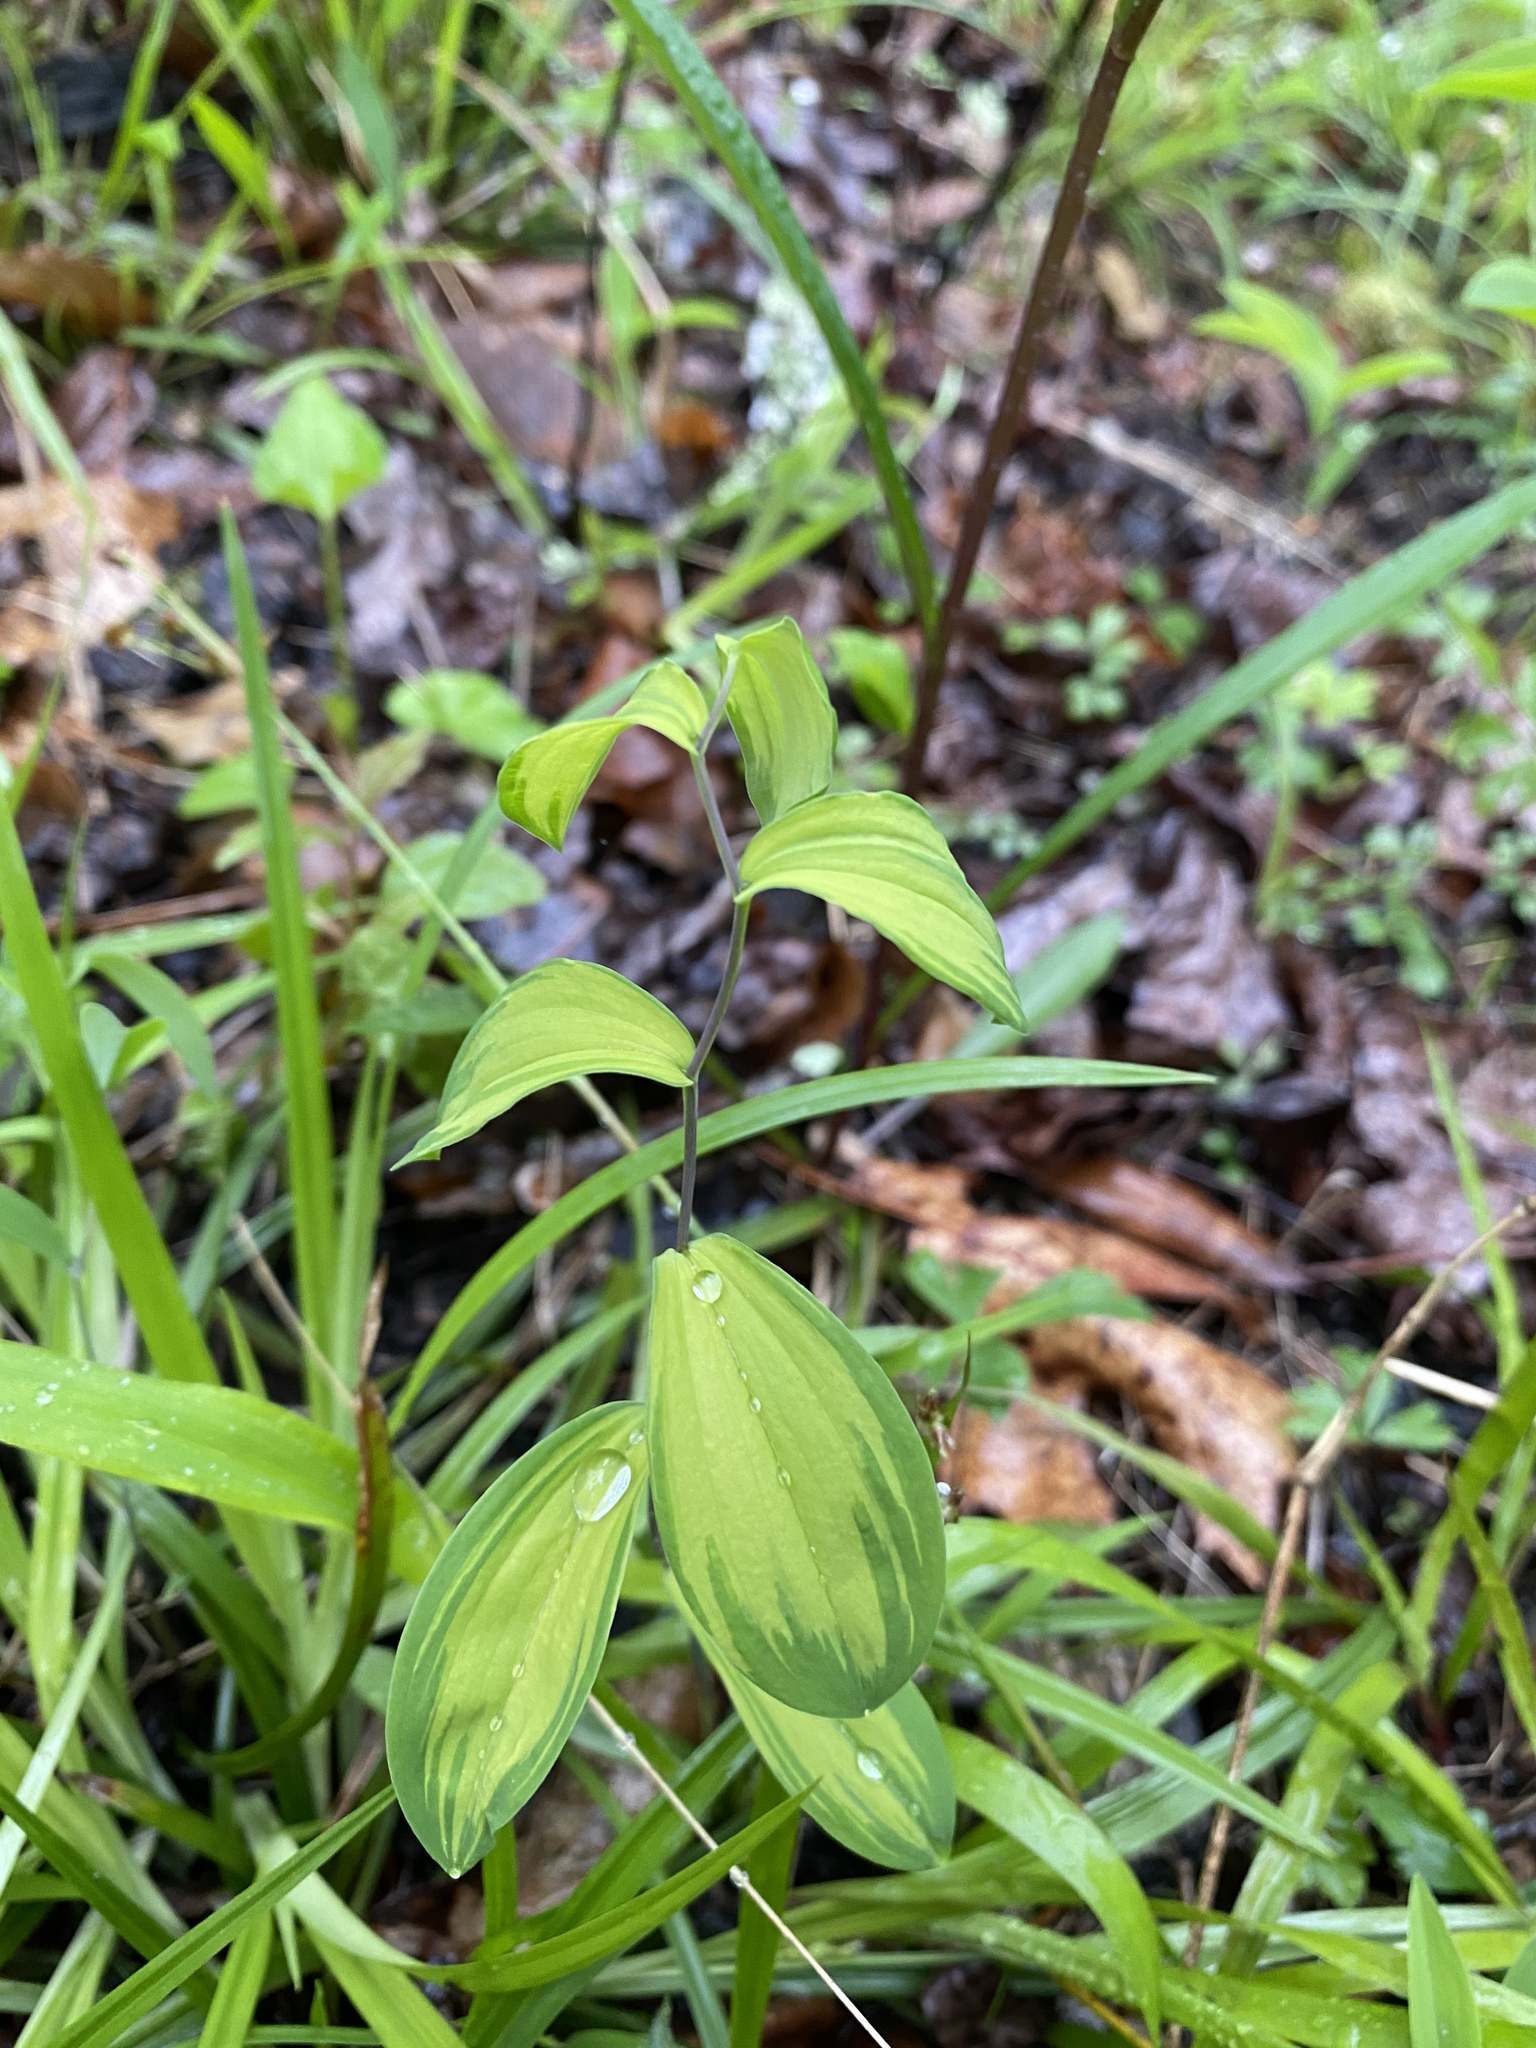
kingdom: Plantae
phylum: Tracheophyta
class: Liliopsida
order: Liliales
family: Colchicaceae
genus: Uvularia
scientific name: Uvularia sessilifolia
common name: Straw-lily
